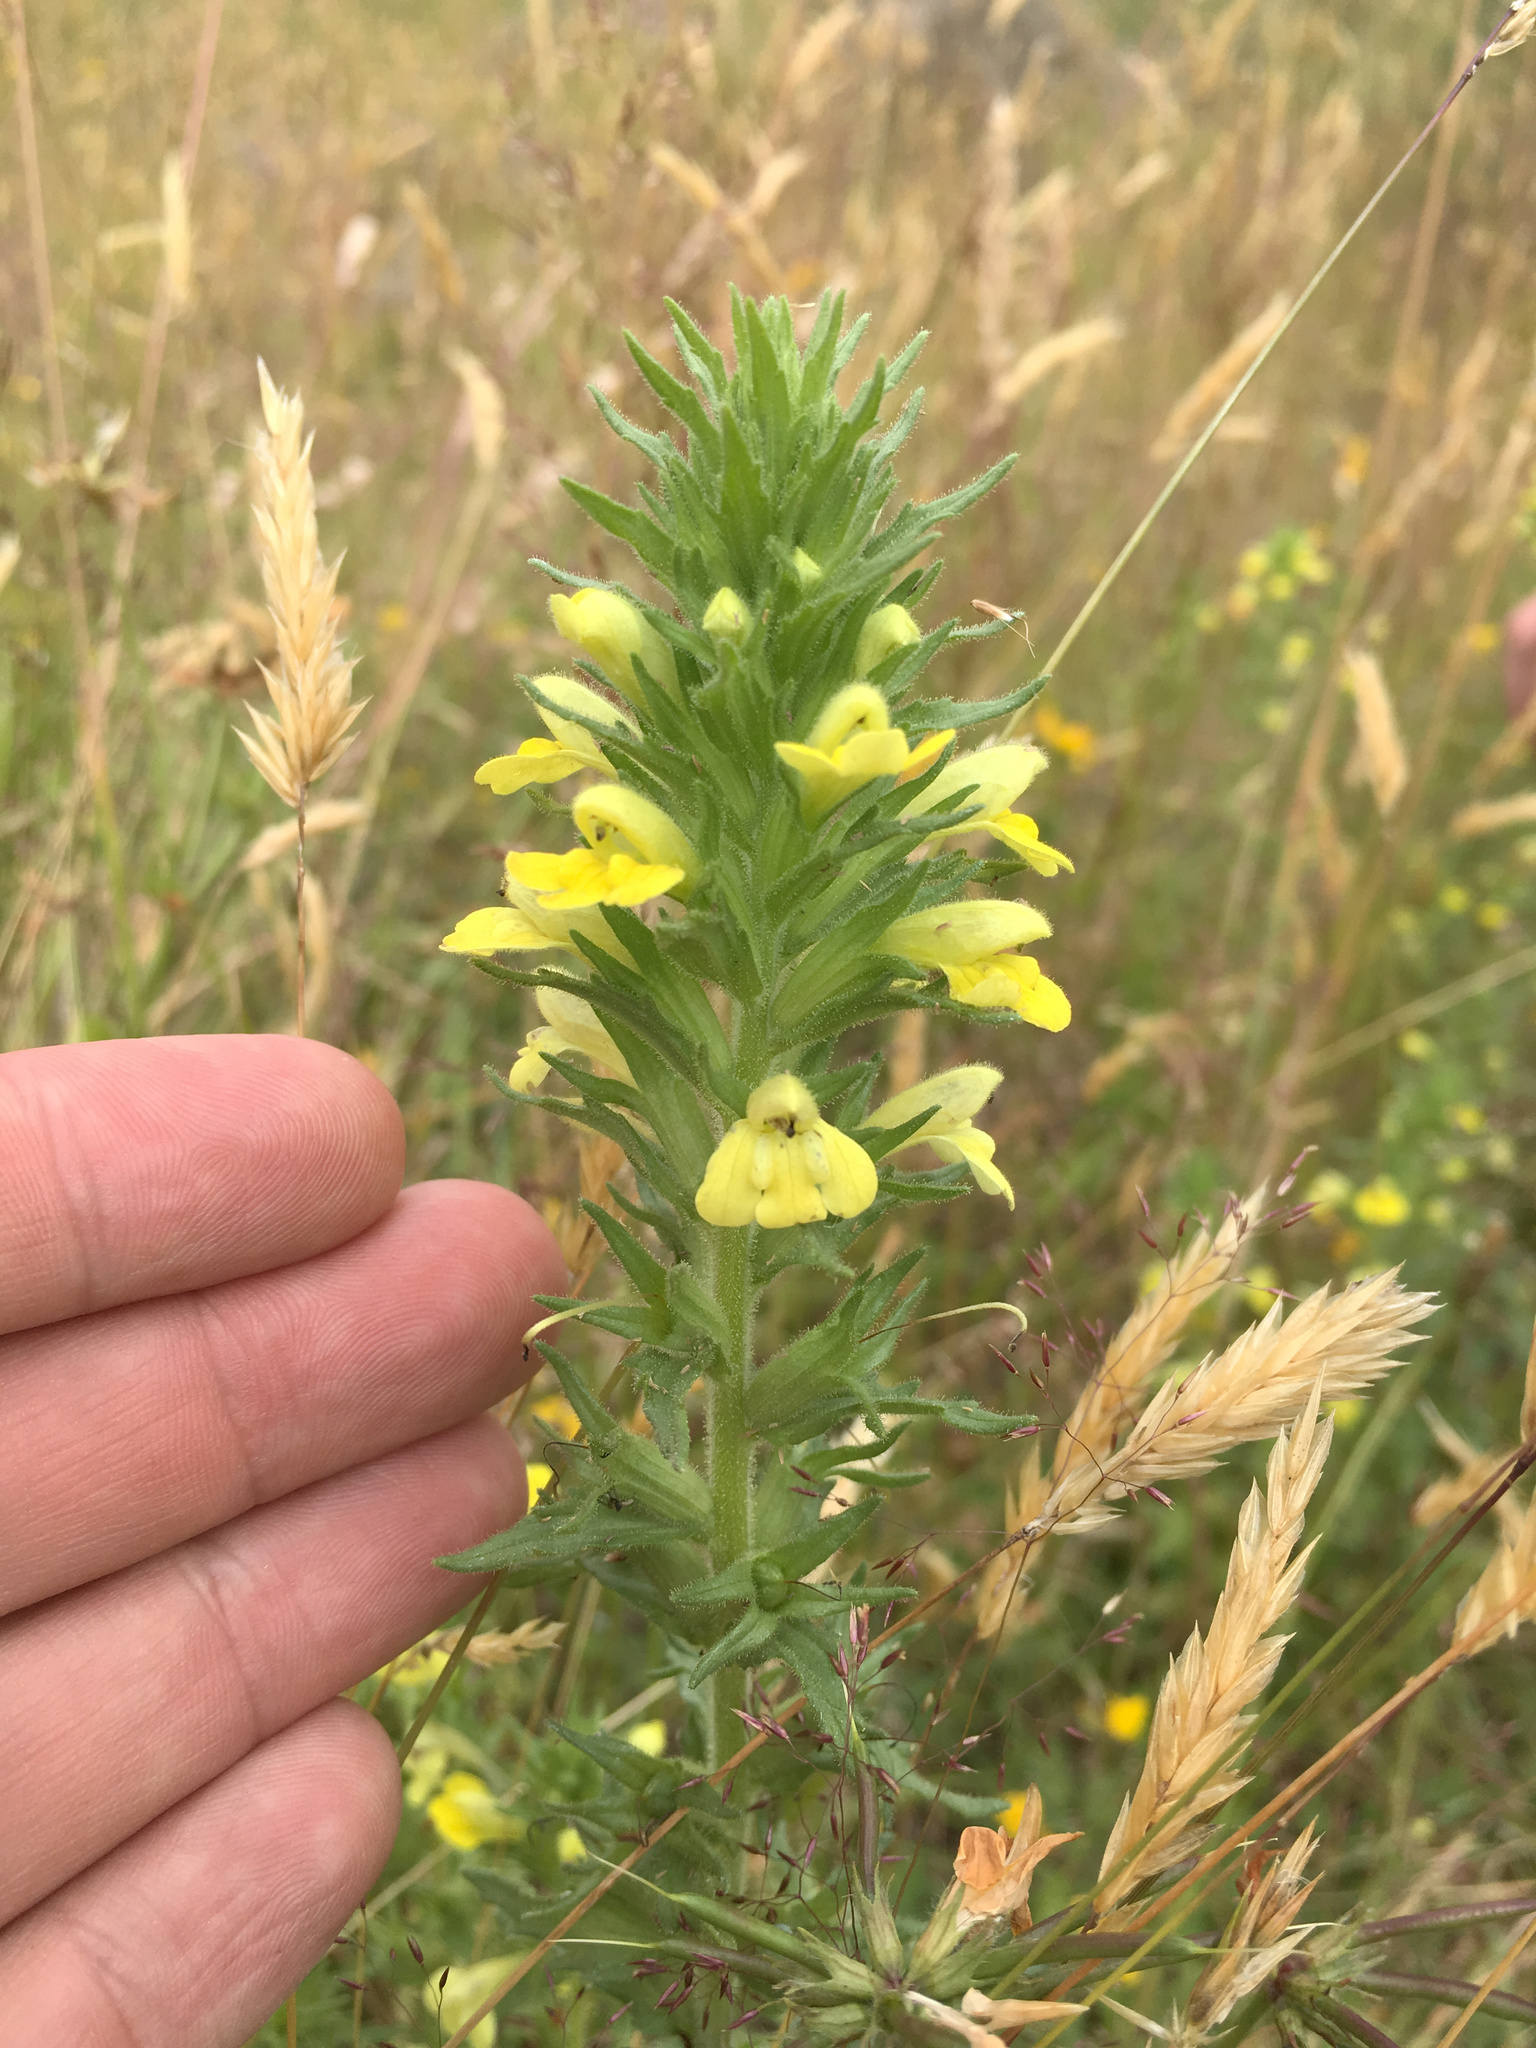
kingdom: Plantae
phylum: Tracheophyta
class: Magnoliopsida
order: Lamiales
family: Orobanchaceae
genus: Bellardia
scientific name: Bellardia viscosa
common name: Sticky parentucellia
